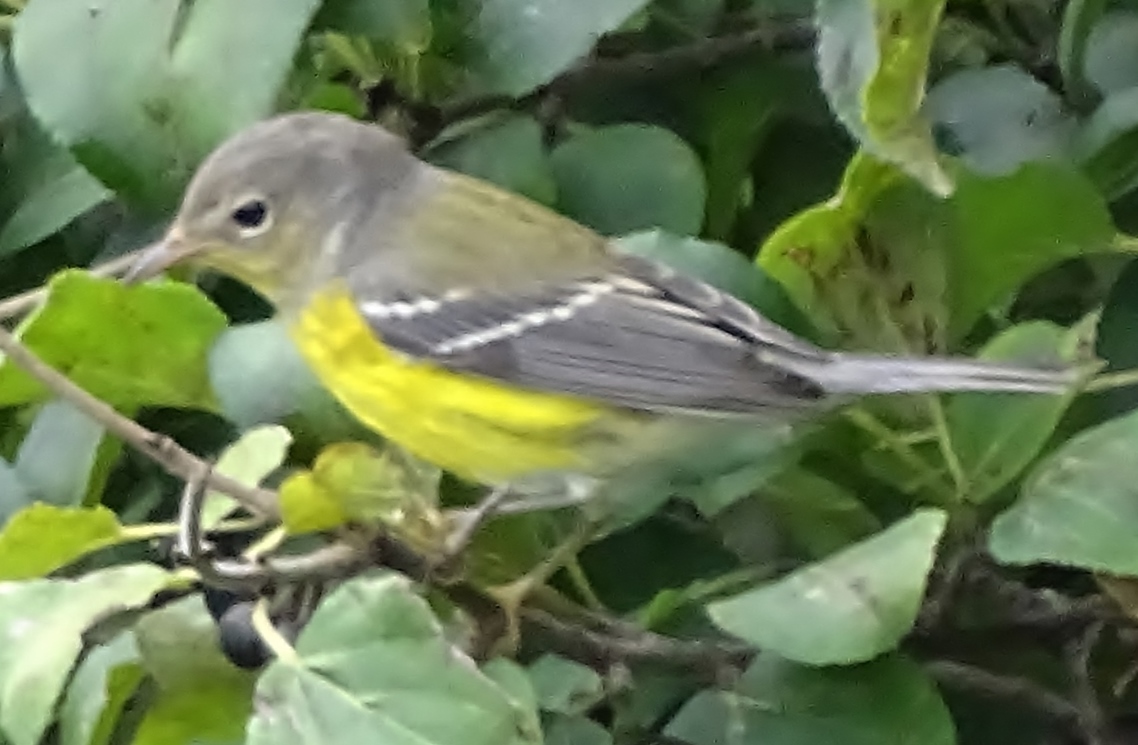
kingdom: Animalia
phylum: Chordata
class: Aves
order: Passeriformes
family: Parulidae
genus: Setophaga
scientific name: Setophaga magnolia
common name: Magnolia warbler
